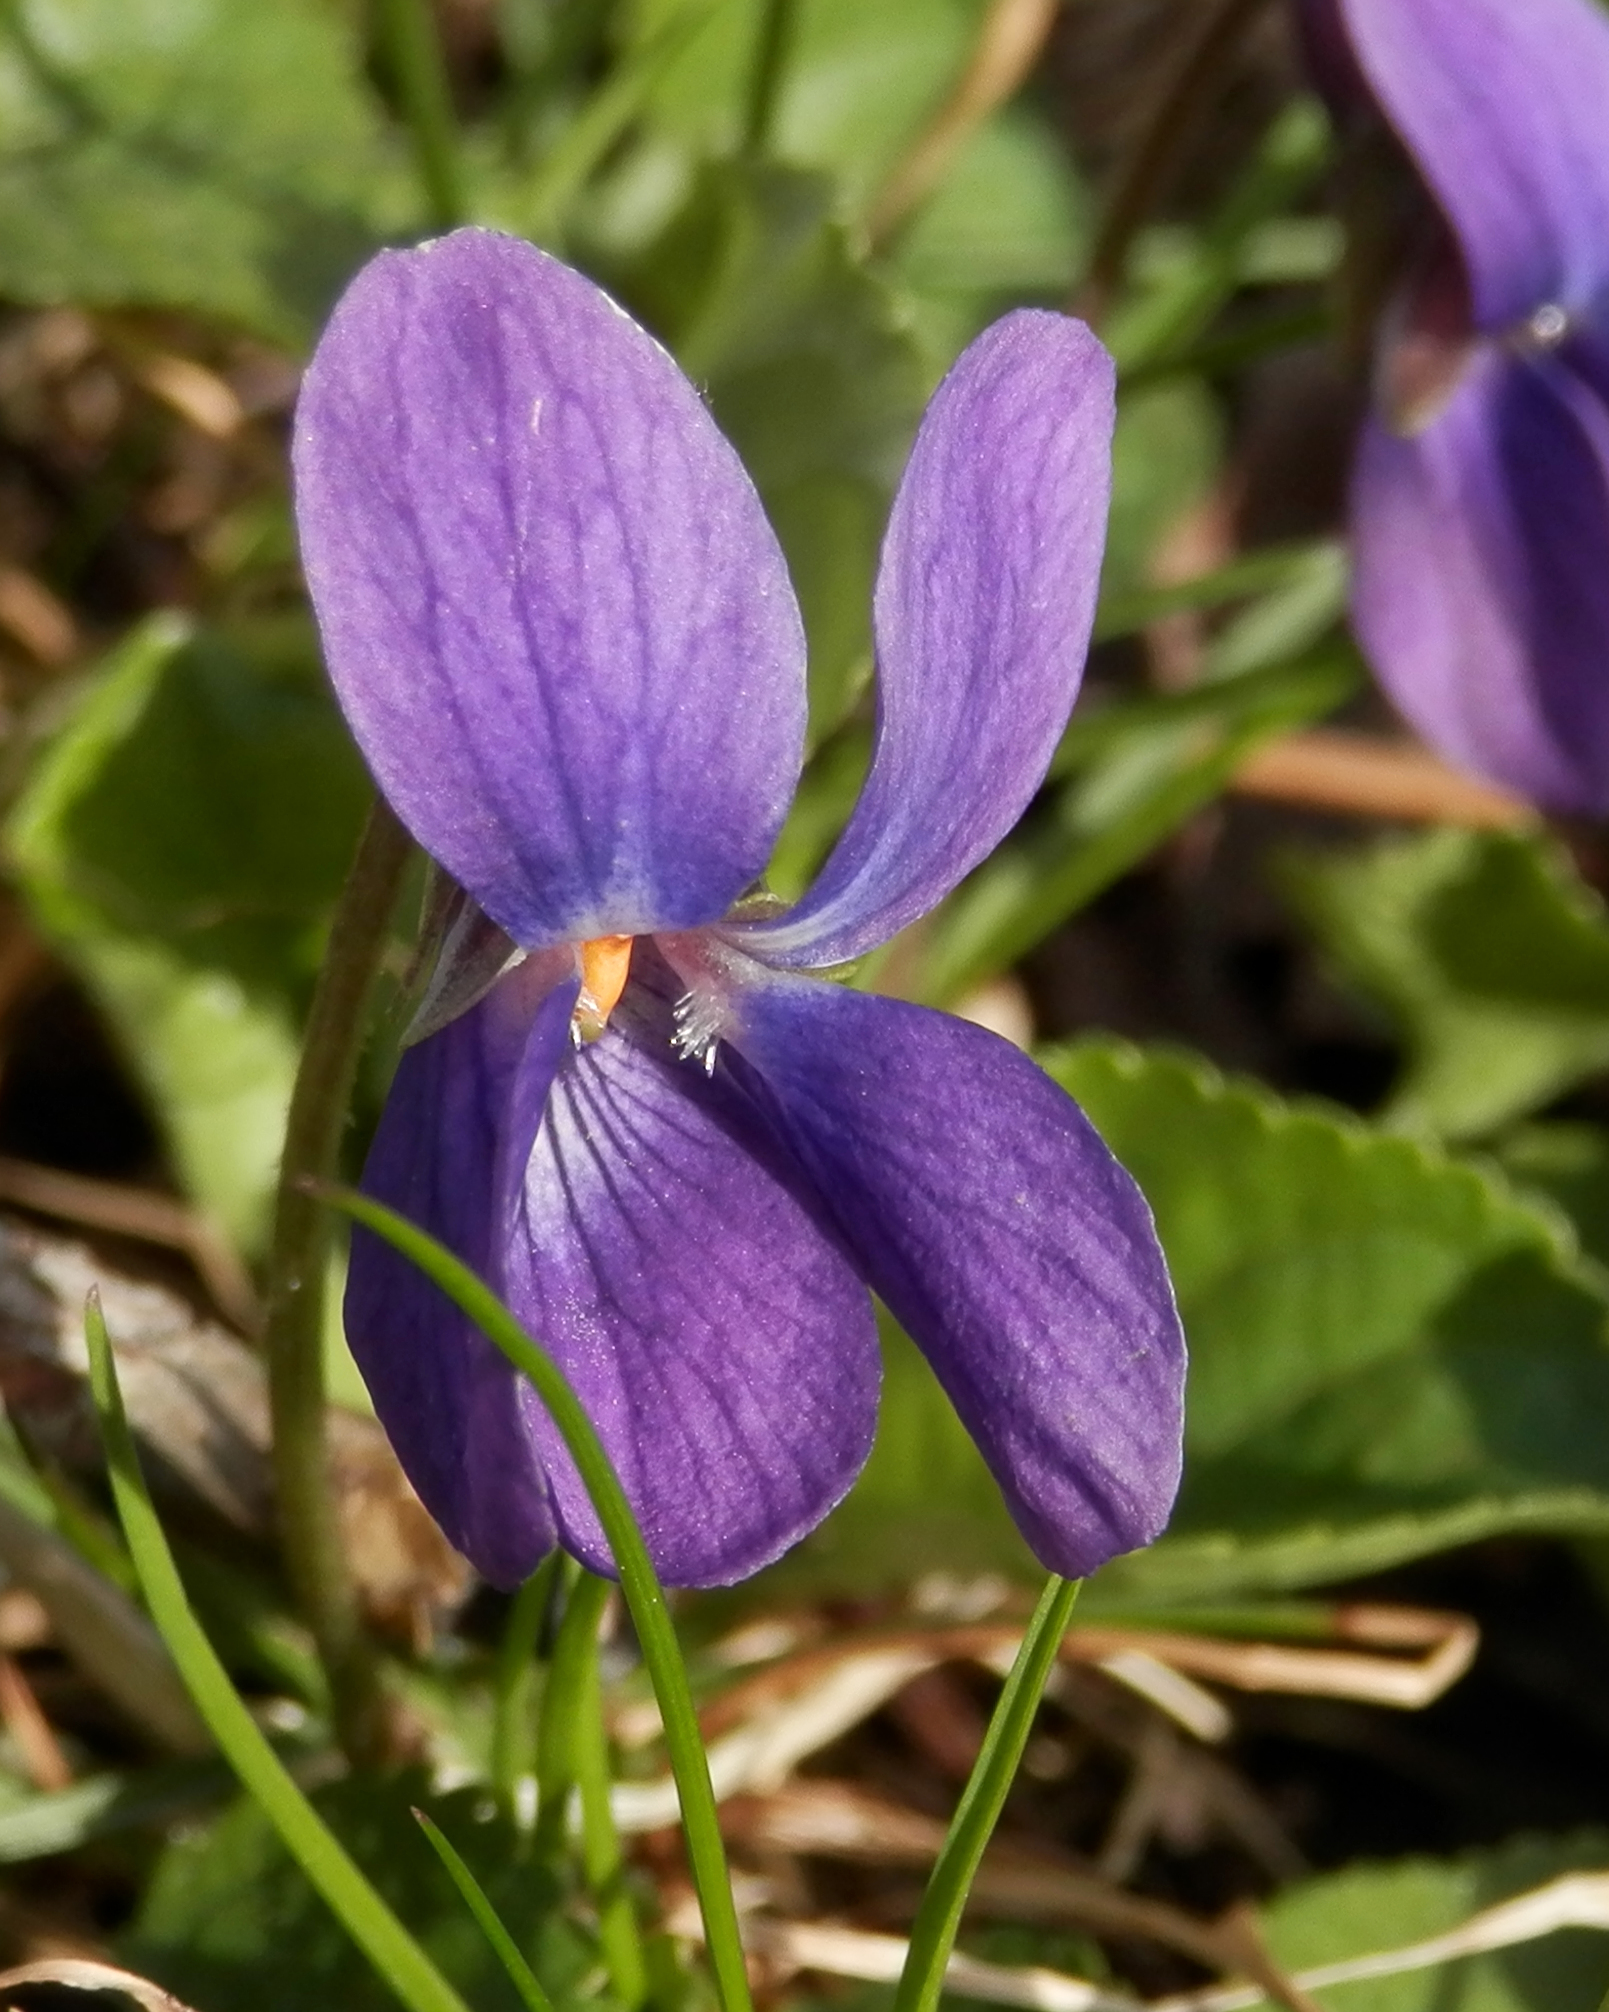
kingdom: Plantae
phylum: Tracheophyta
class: Magnoliopsida
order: Malpighiales
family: Violaceae
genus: Viola
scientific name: Viola odorata
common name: Sweet violet
